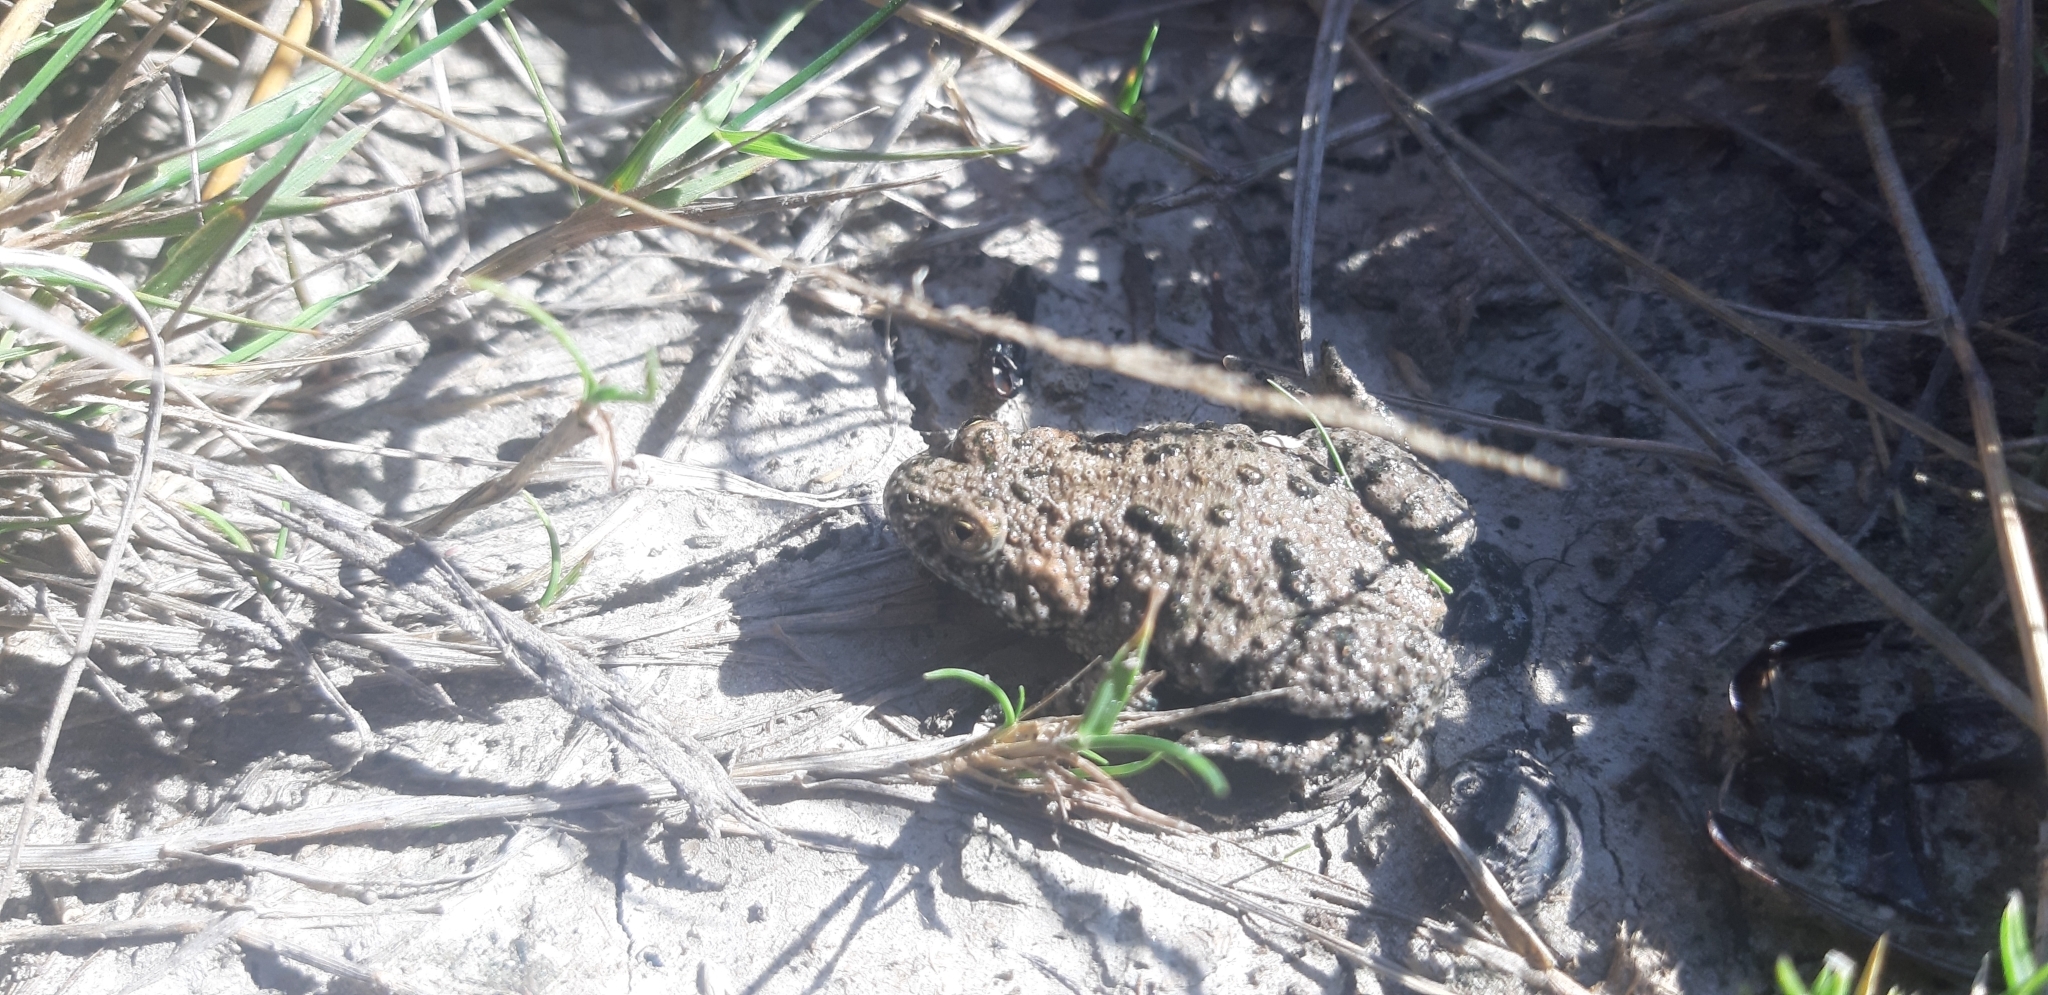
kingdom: Animalia
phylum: Chordata
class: Amphibia
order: Anura
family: Bombinatoridae
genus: Bombina
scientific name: Bombina bombina
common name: Fire-bellied toad
